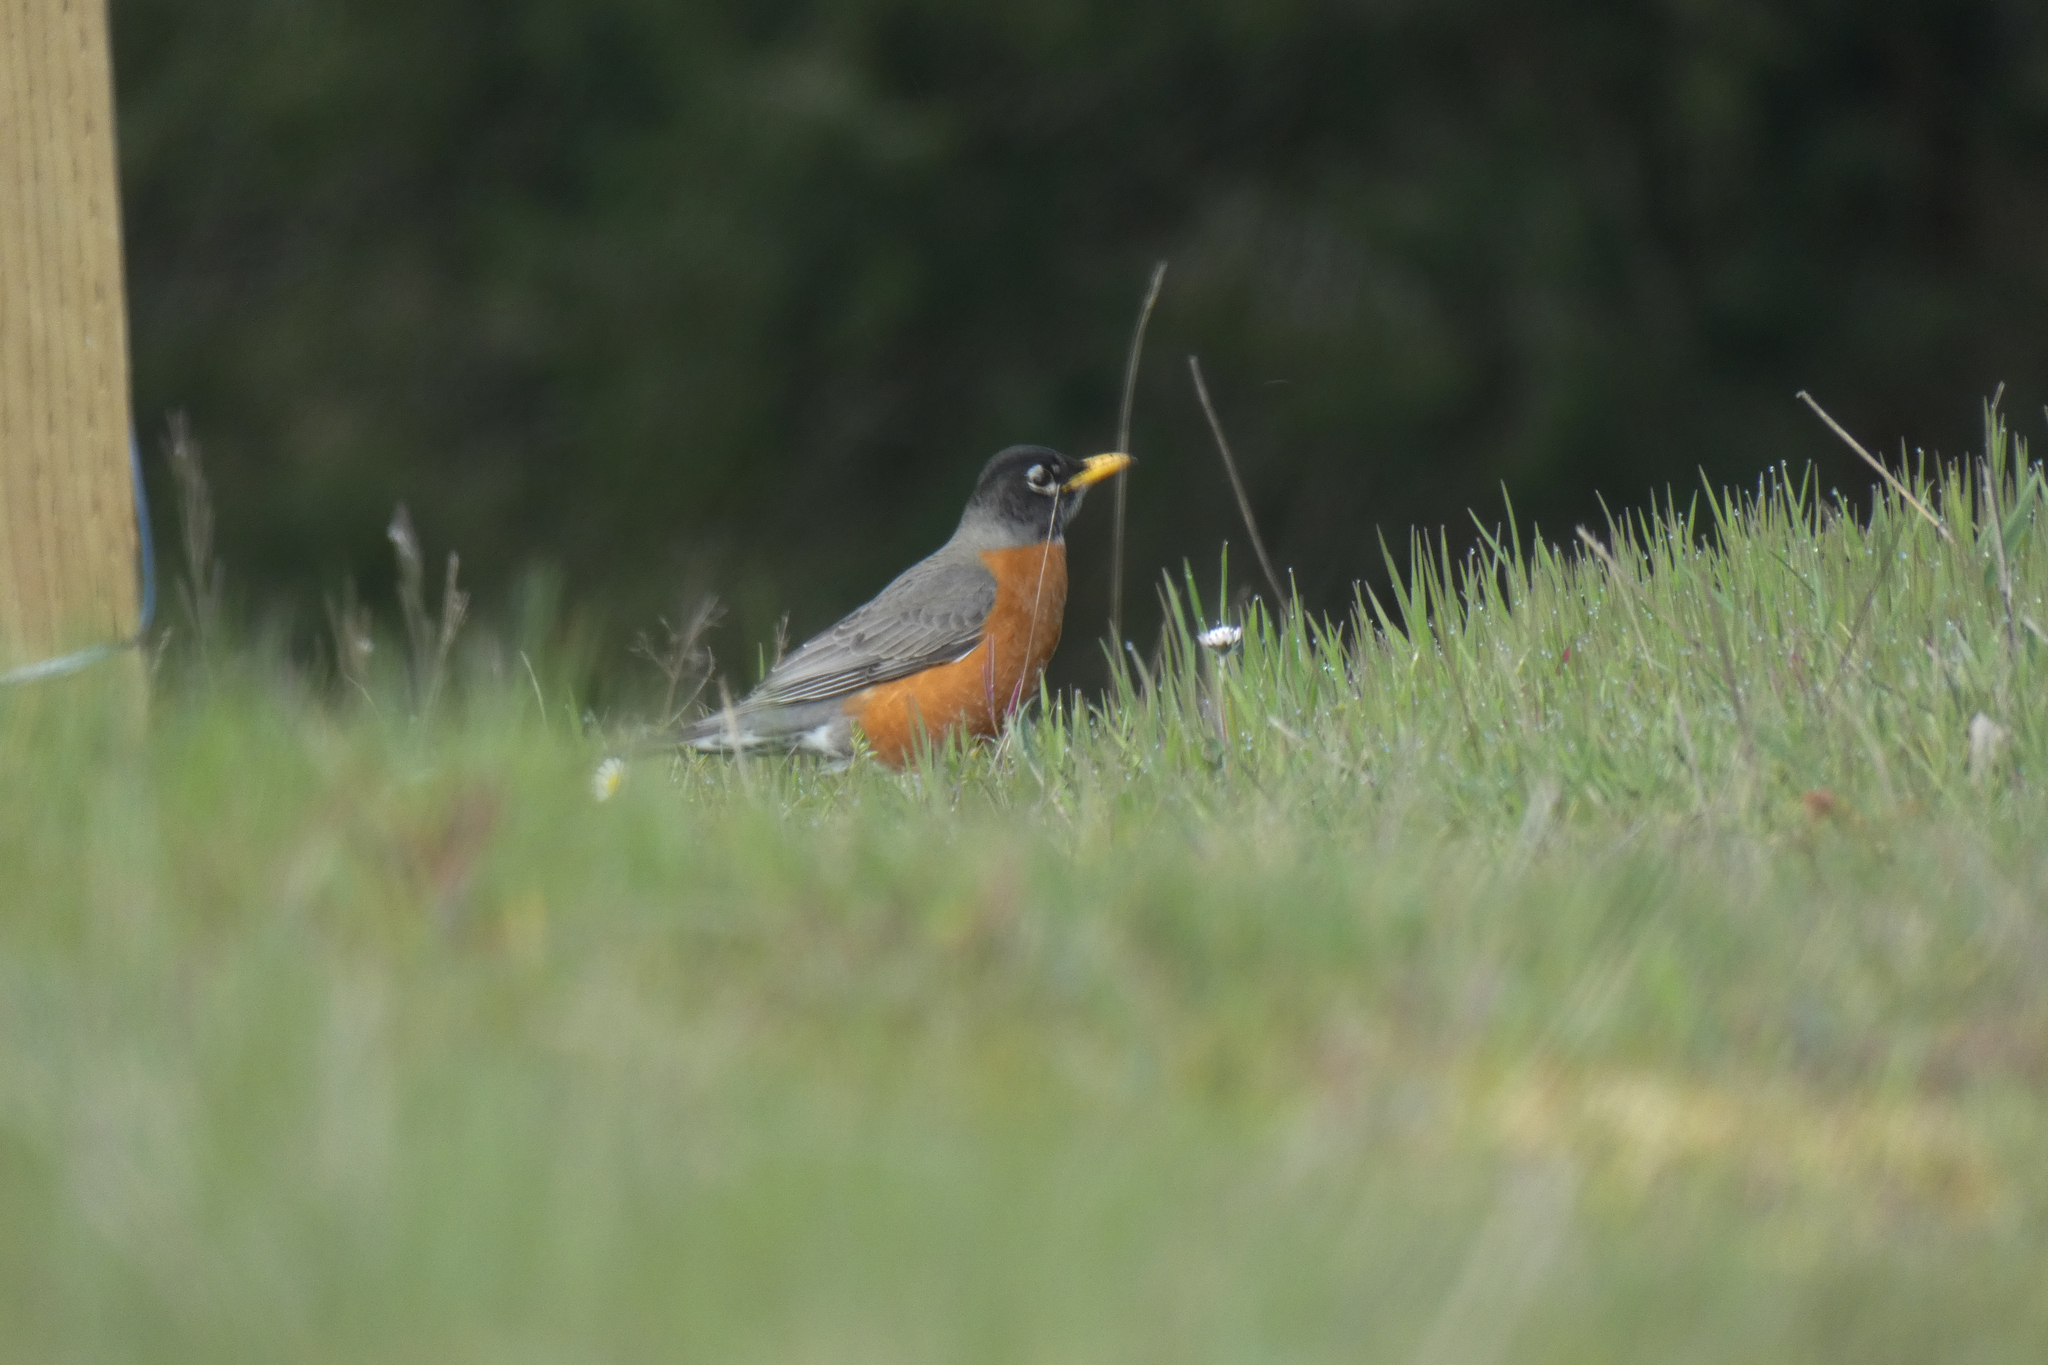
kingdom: Animalia
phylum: Chordata
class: Aves
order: Passeriformes
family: Turdidae
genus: Turdus
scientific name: Turdus migratorius
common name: American robin
